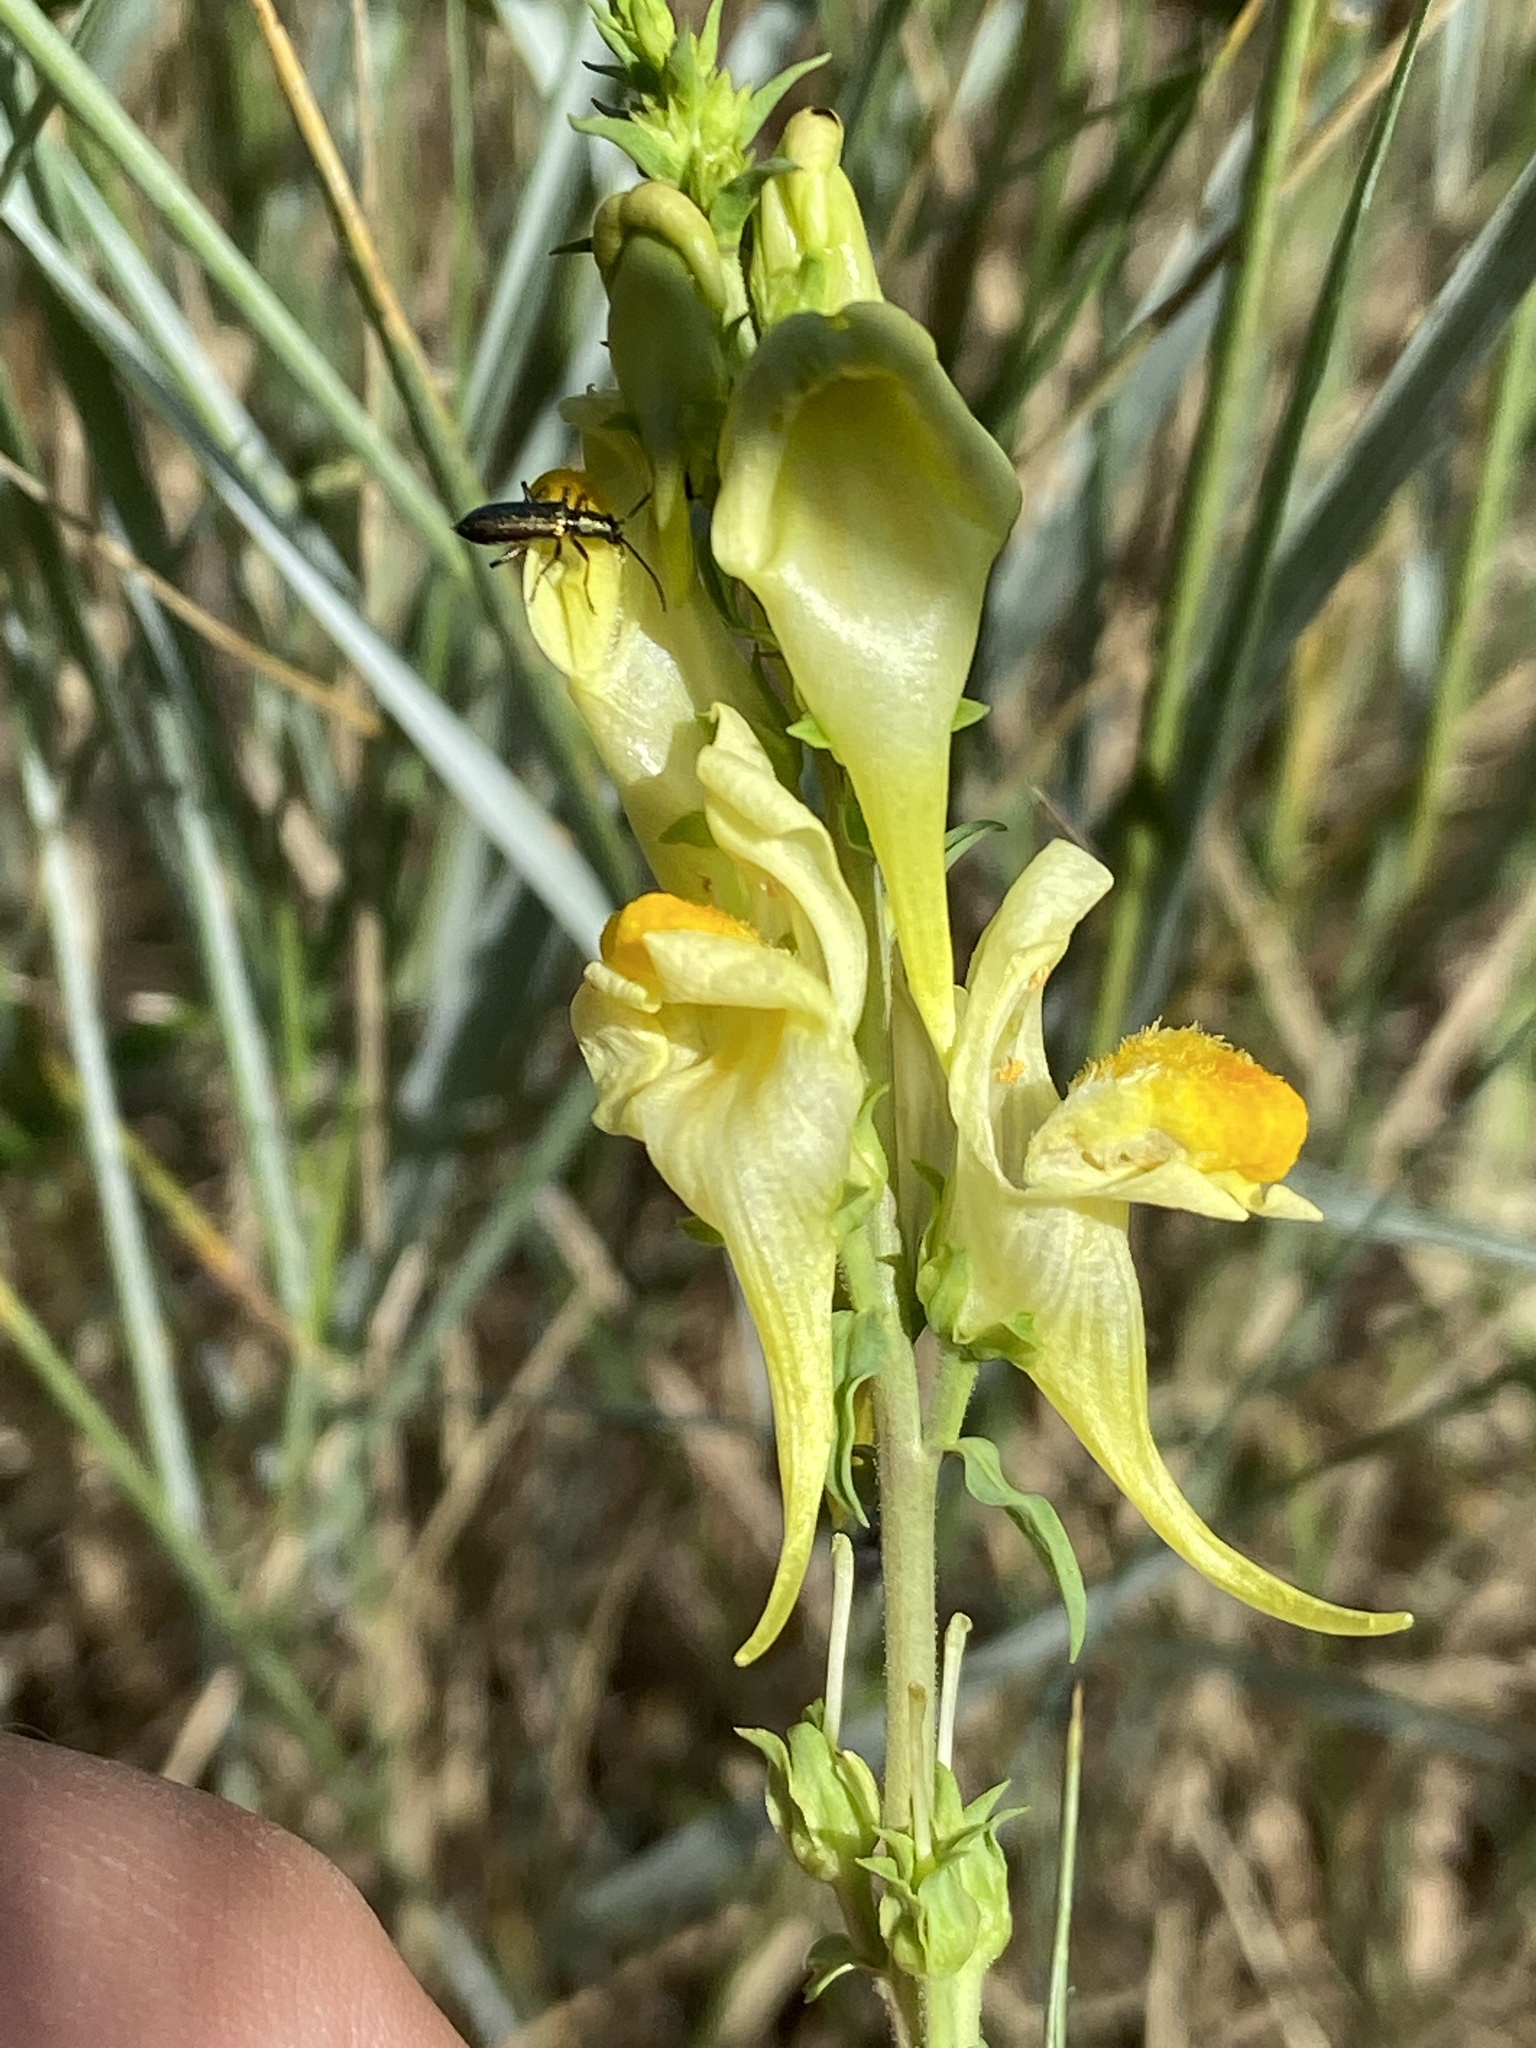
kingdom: Plantae
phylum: Tracheophyta
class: Magnoliopsida
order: Lamiales
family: Plantaginaceae
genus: Linaria
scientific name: Linaria vulgaris
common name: Butter and eggs
